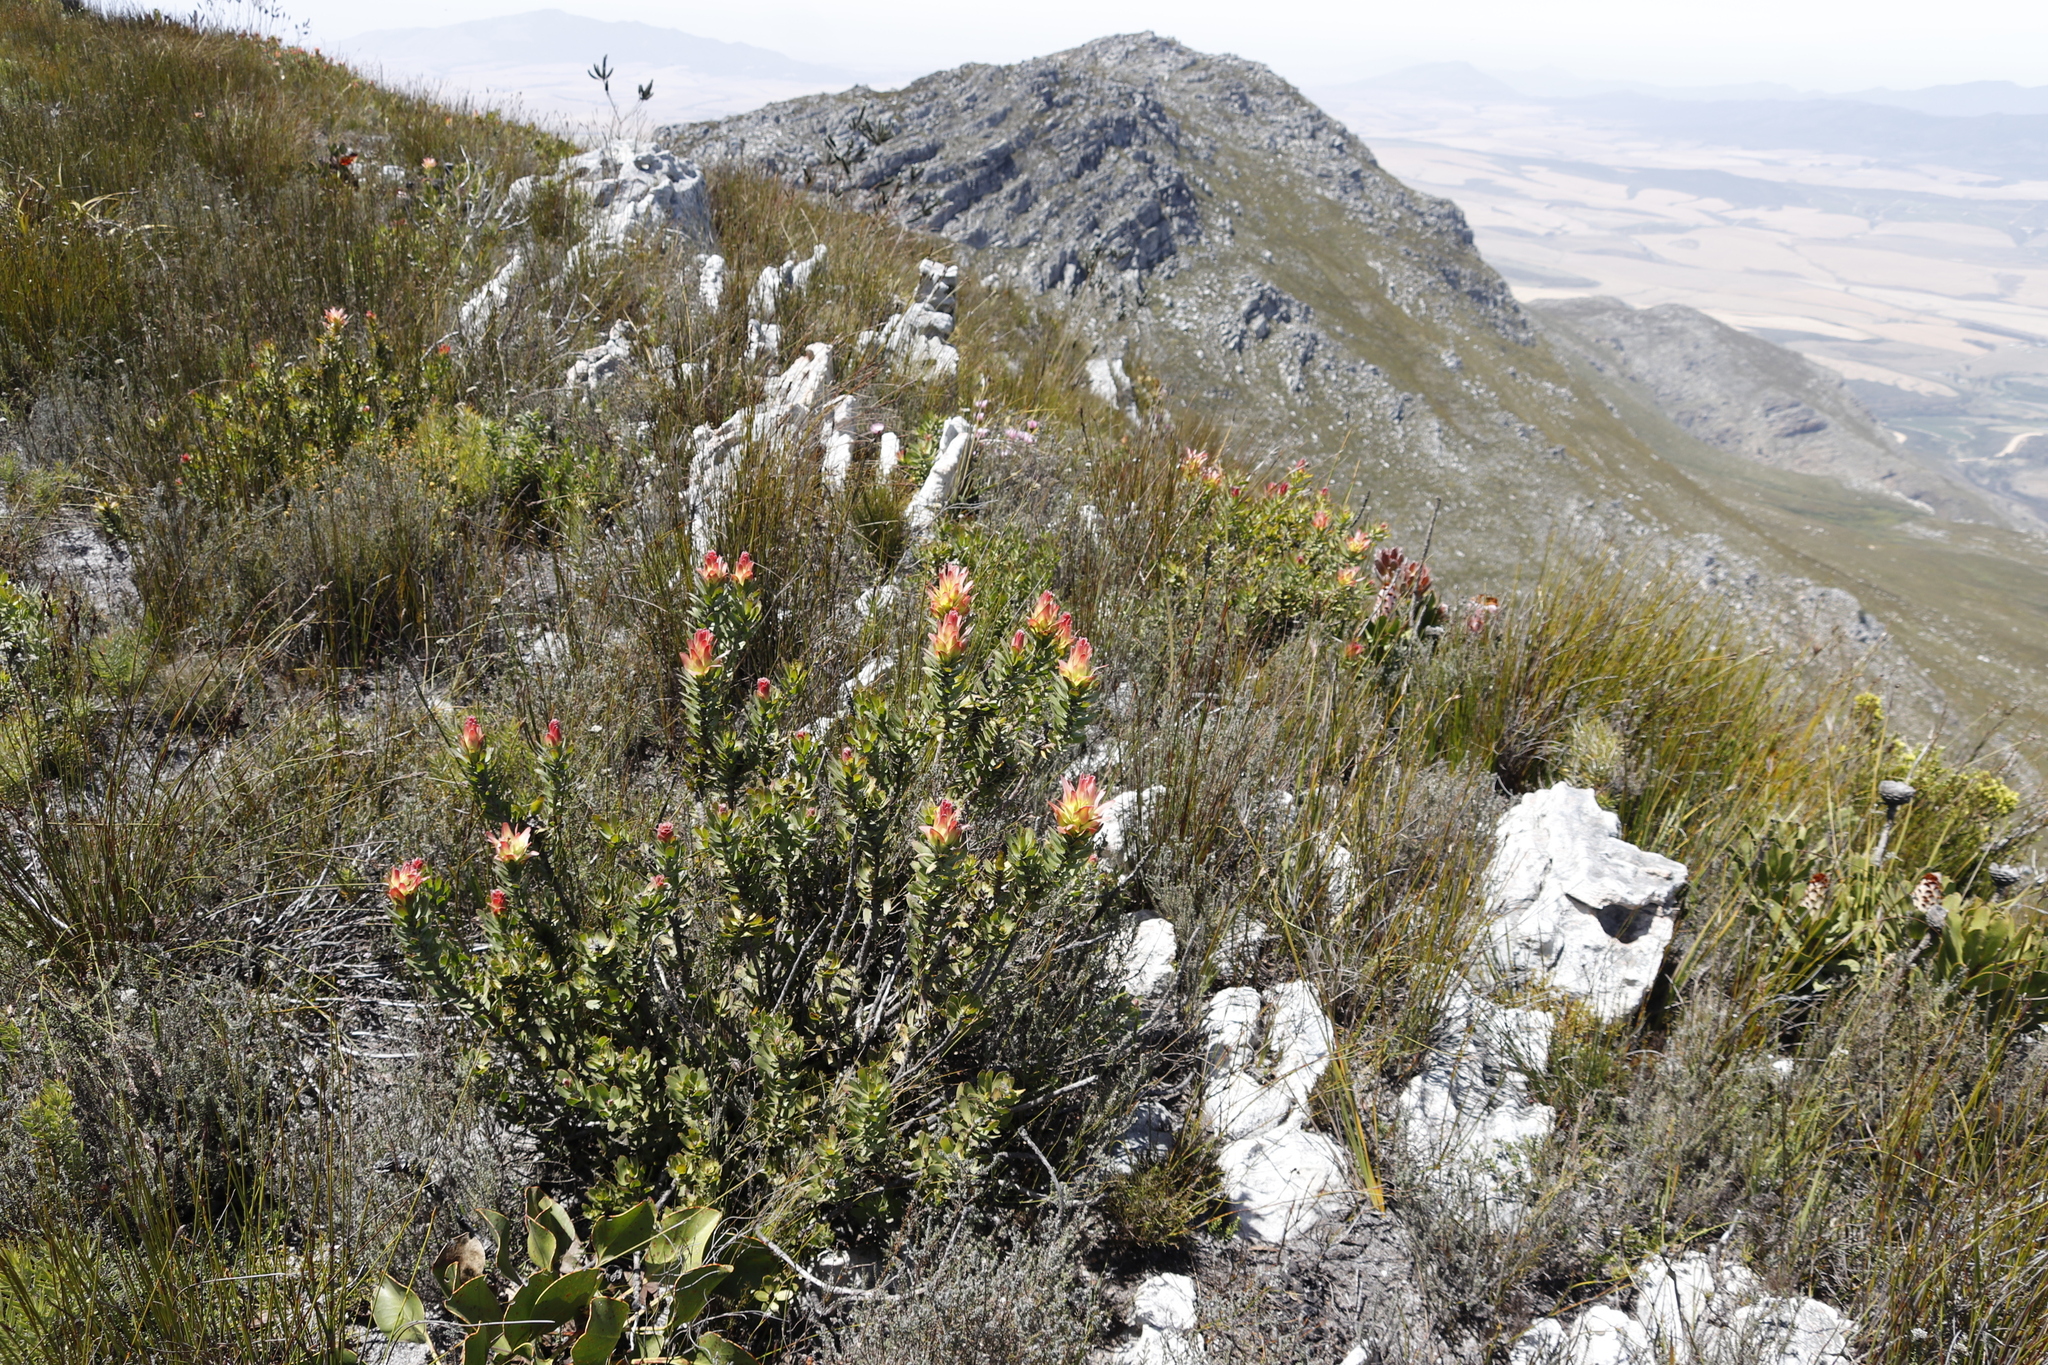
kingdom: Plantae
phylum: Tracheophyta
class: Magnoliopsida
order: Proteales
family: Proteaceae
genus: Mimetes
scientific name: Mimetes cucullatus
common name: Common pagoda
